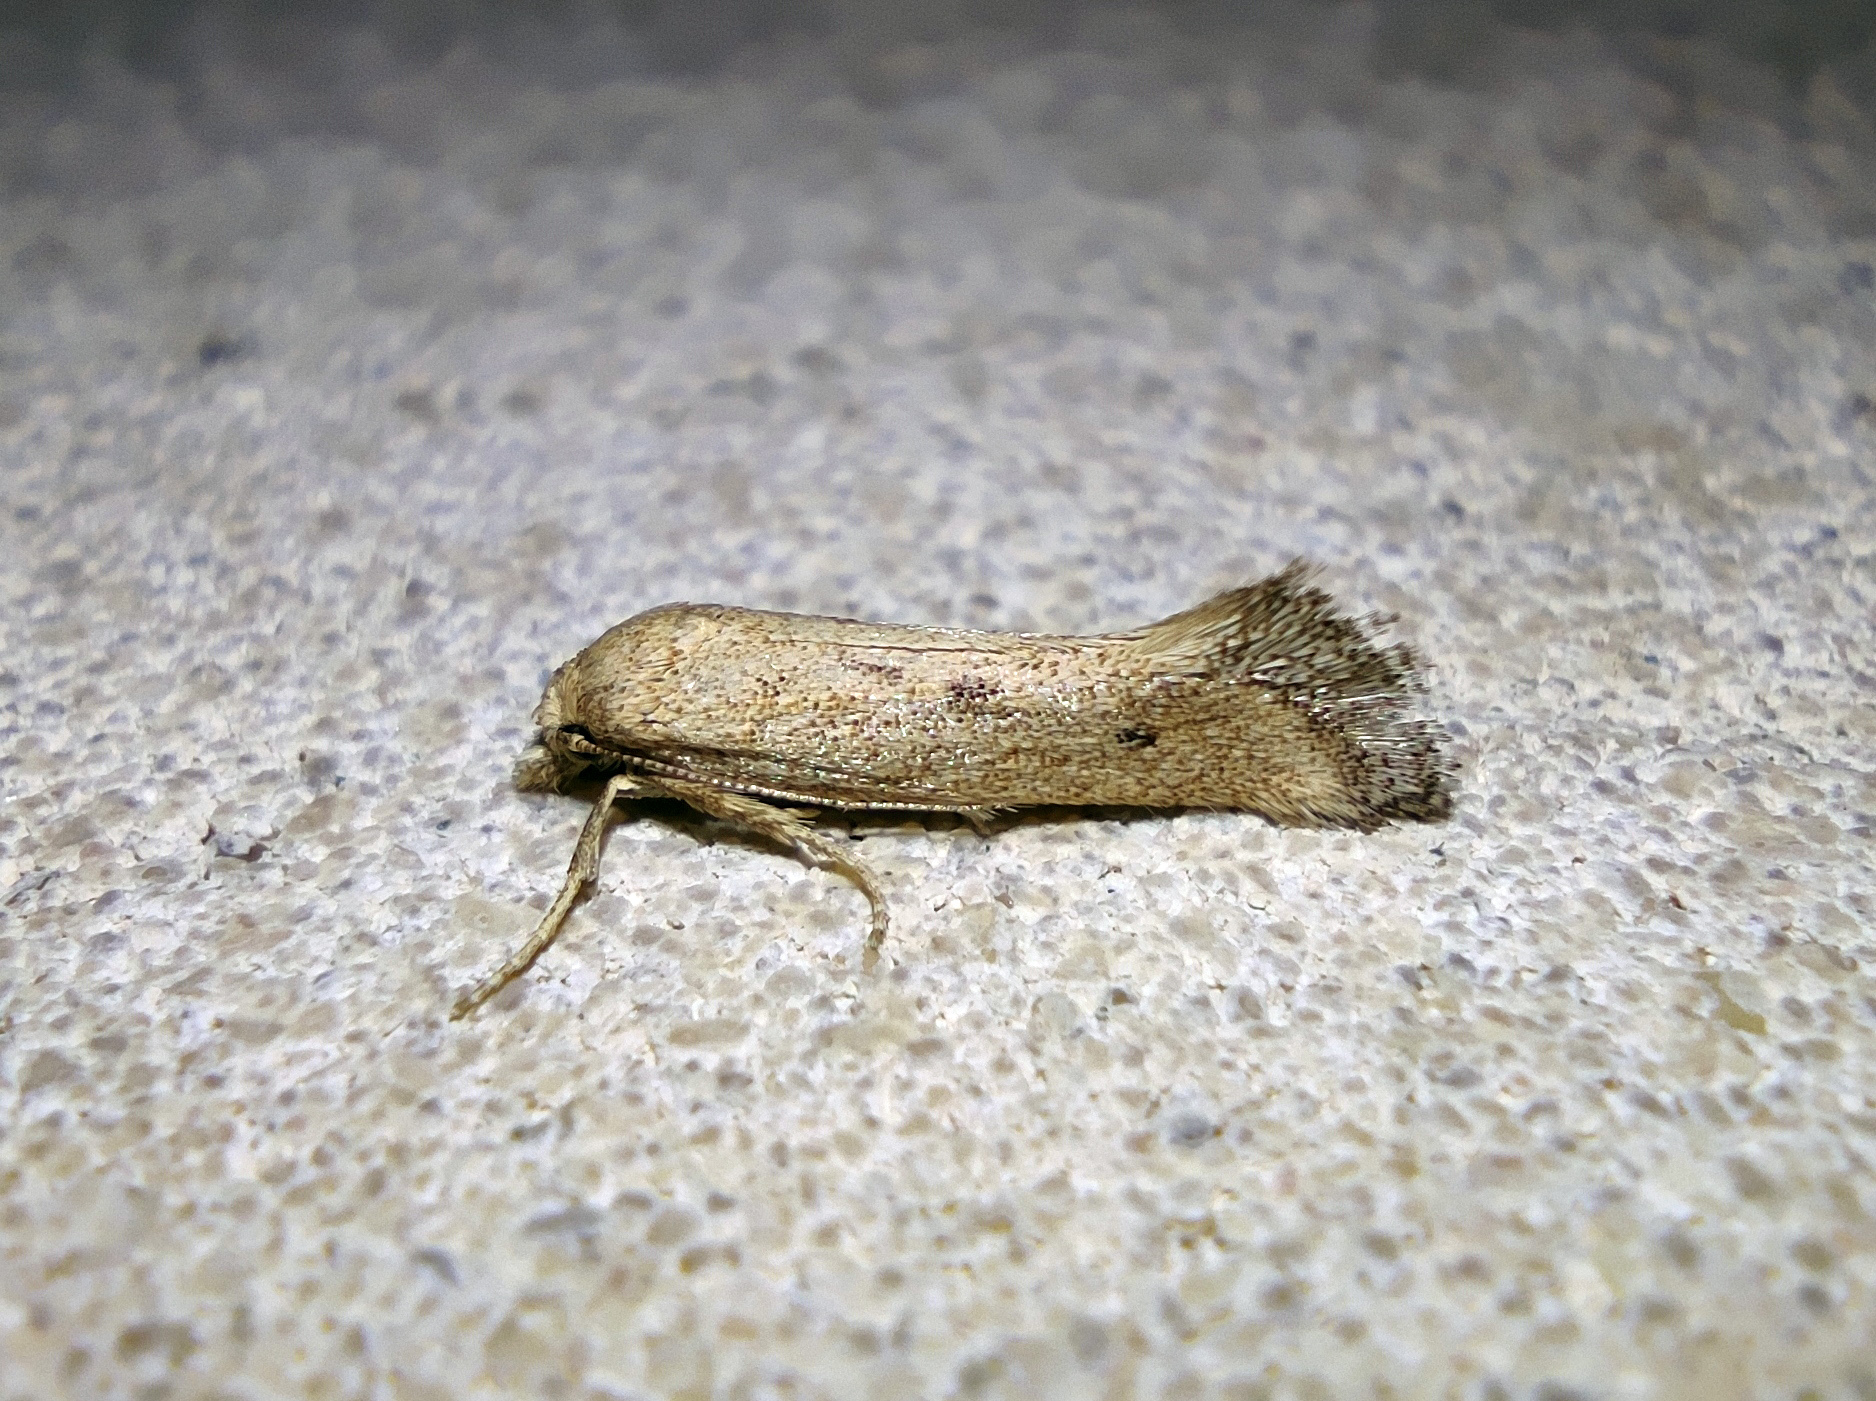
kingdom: Animalia
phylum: Arthropoda
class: Insecta
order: Lepidoptera
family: Gelechiidae
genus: Metanarsia
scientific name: Metanarsia modesta
